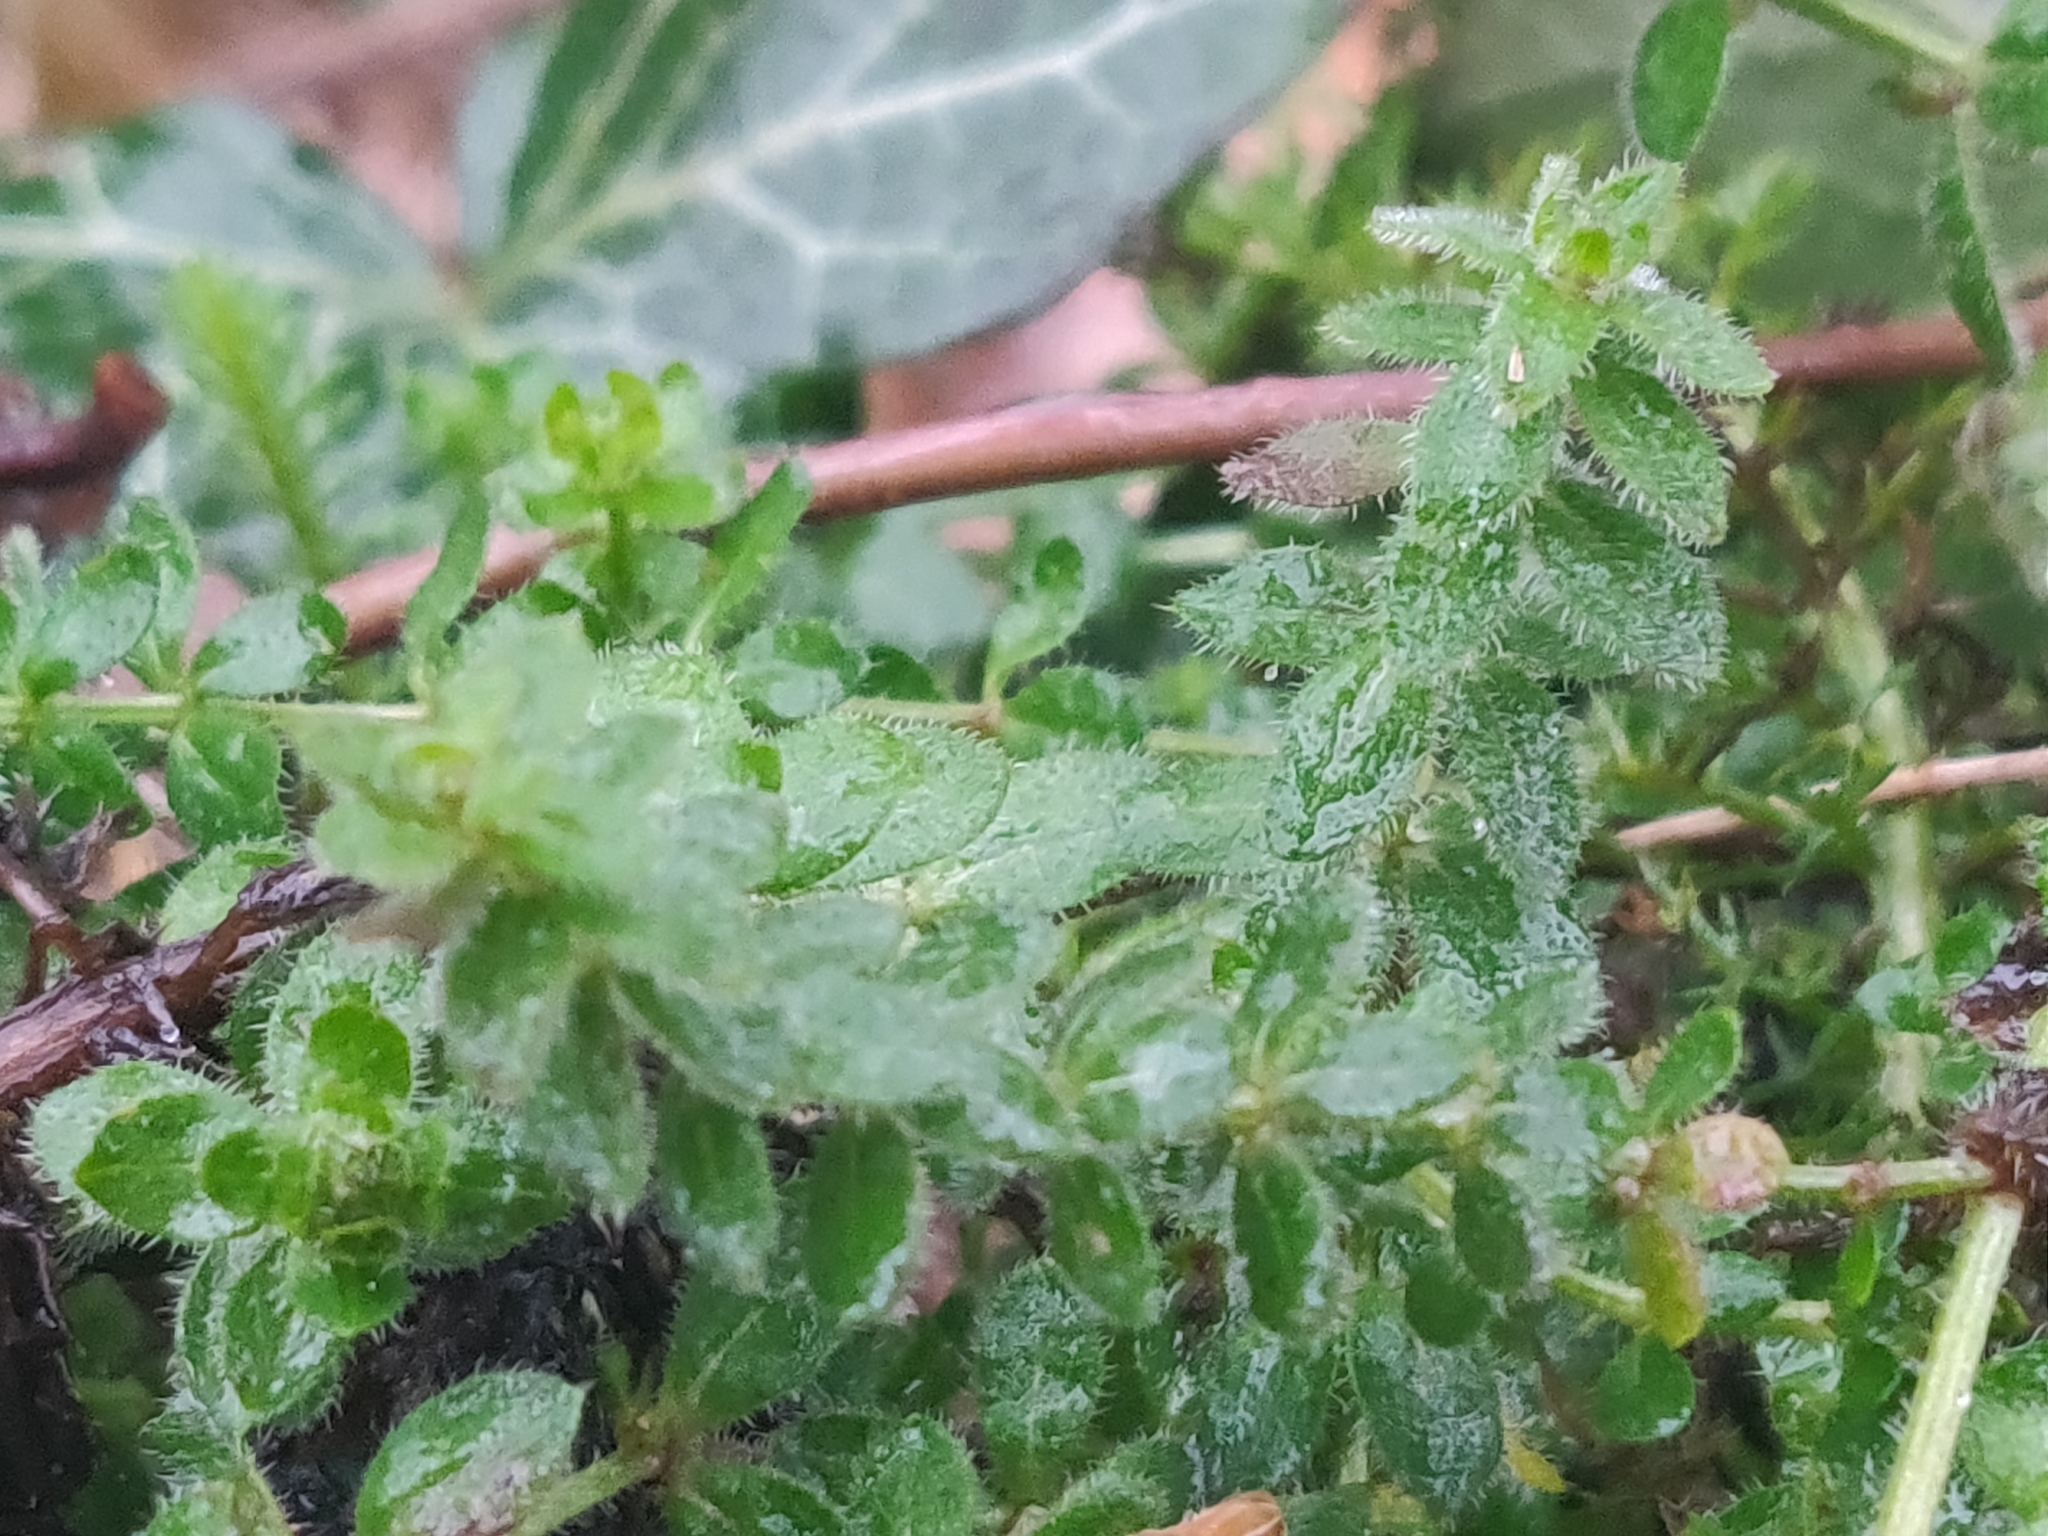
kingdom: Plantae
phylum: Tracheophyta
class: Magnoliopsida
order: Gentianales
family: Rubiaceae
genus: Cruciata
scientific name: Cruciata laevipes
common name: Crosswort
